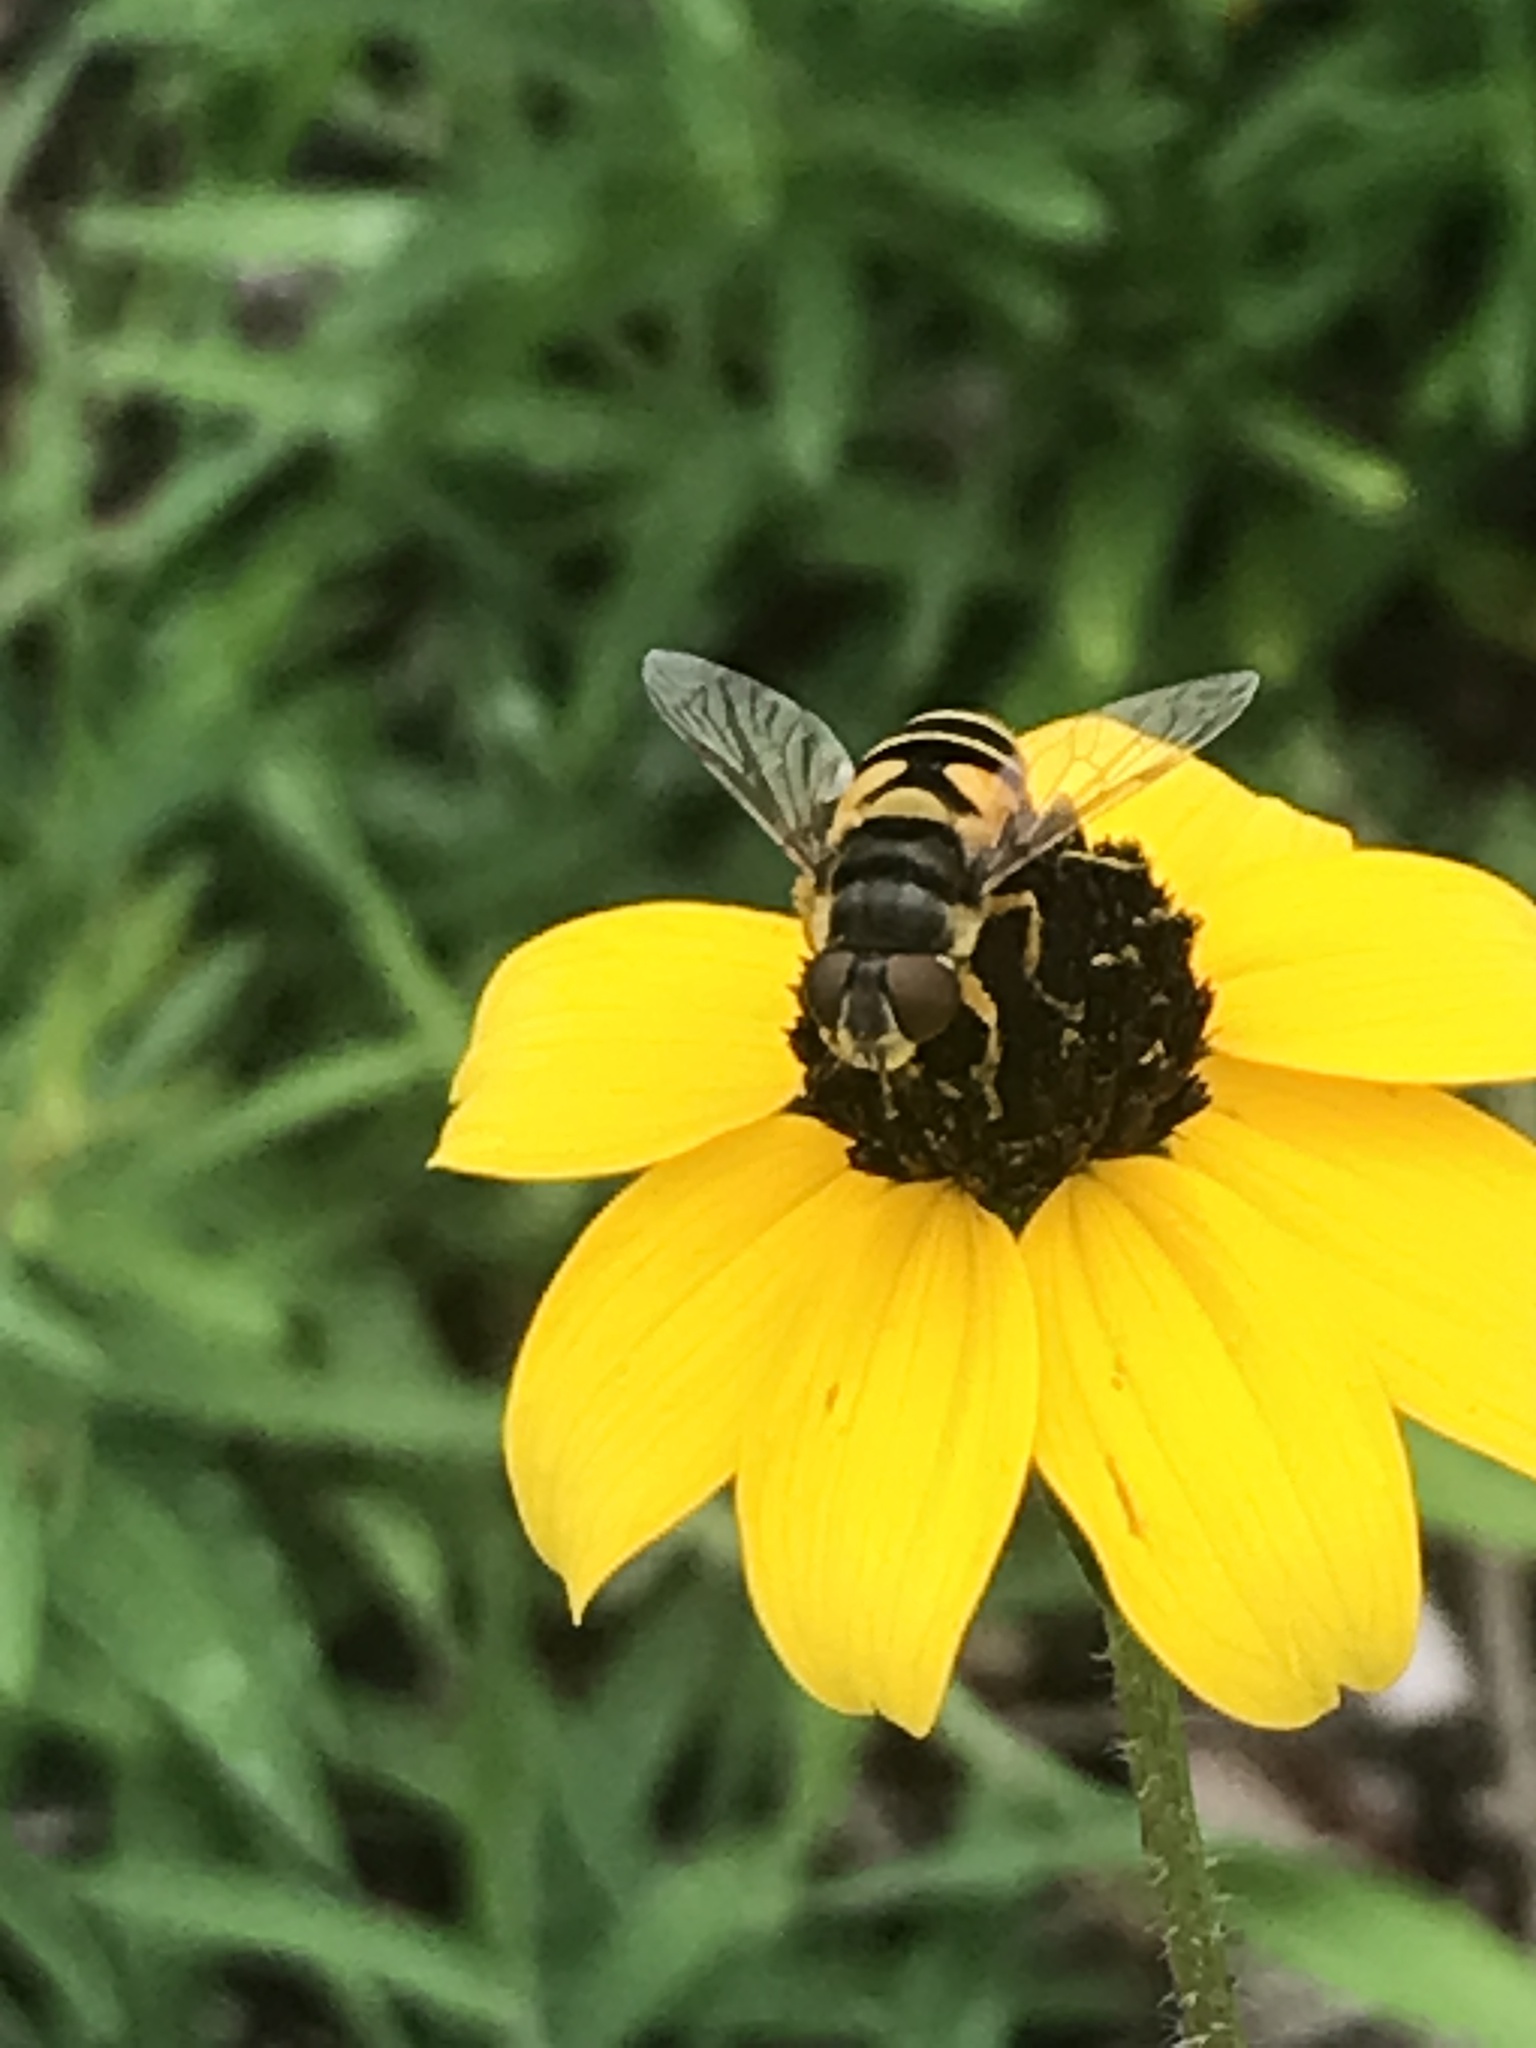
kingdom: Animalia
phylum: Arthropoda
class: Insecta
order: Diptera
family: Syrphidae
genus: Eristalis
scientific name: Eristalis transversa
